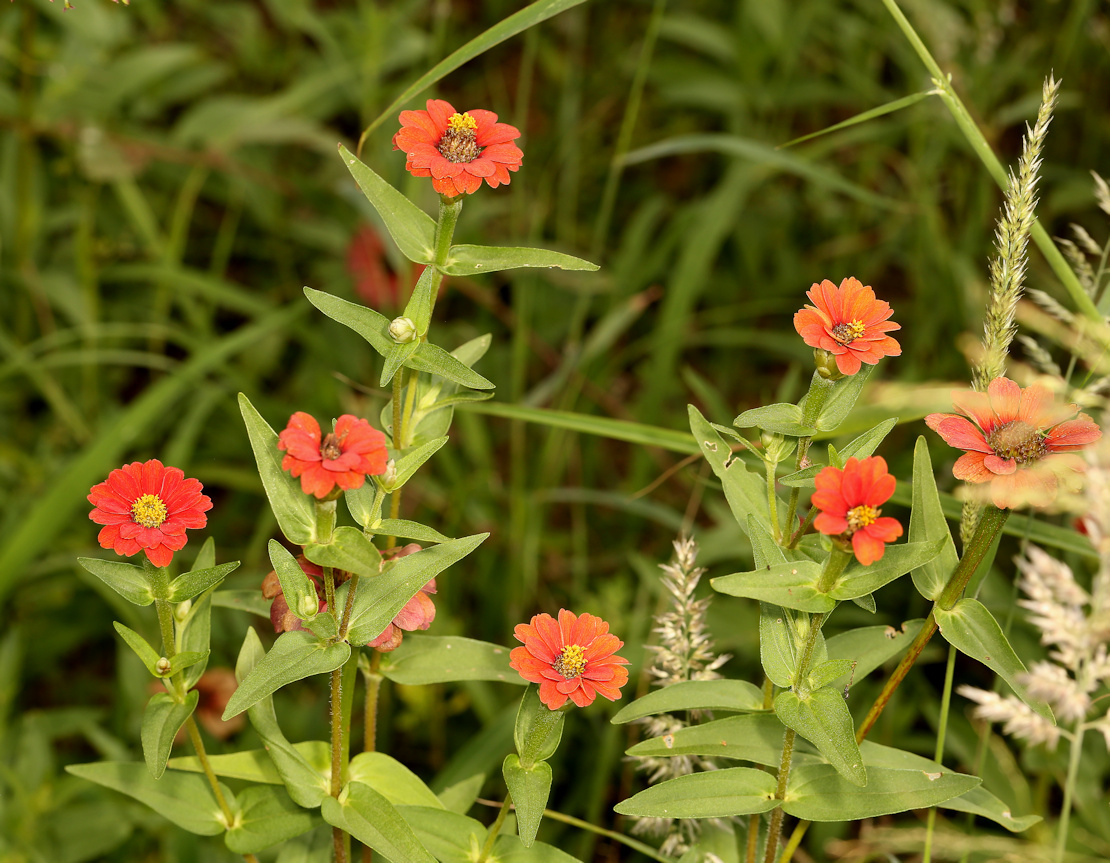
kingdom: Plantae
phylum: Tracheophyta
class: Magnoliopsida
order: Asterales
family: Asteraceae
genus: Zinnia
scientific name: Zinnia peruviana
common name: Peruvian zinnia
